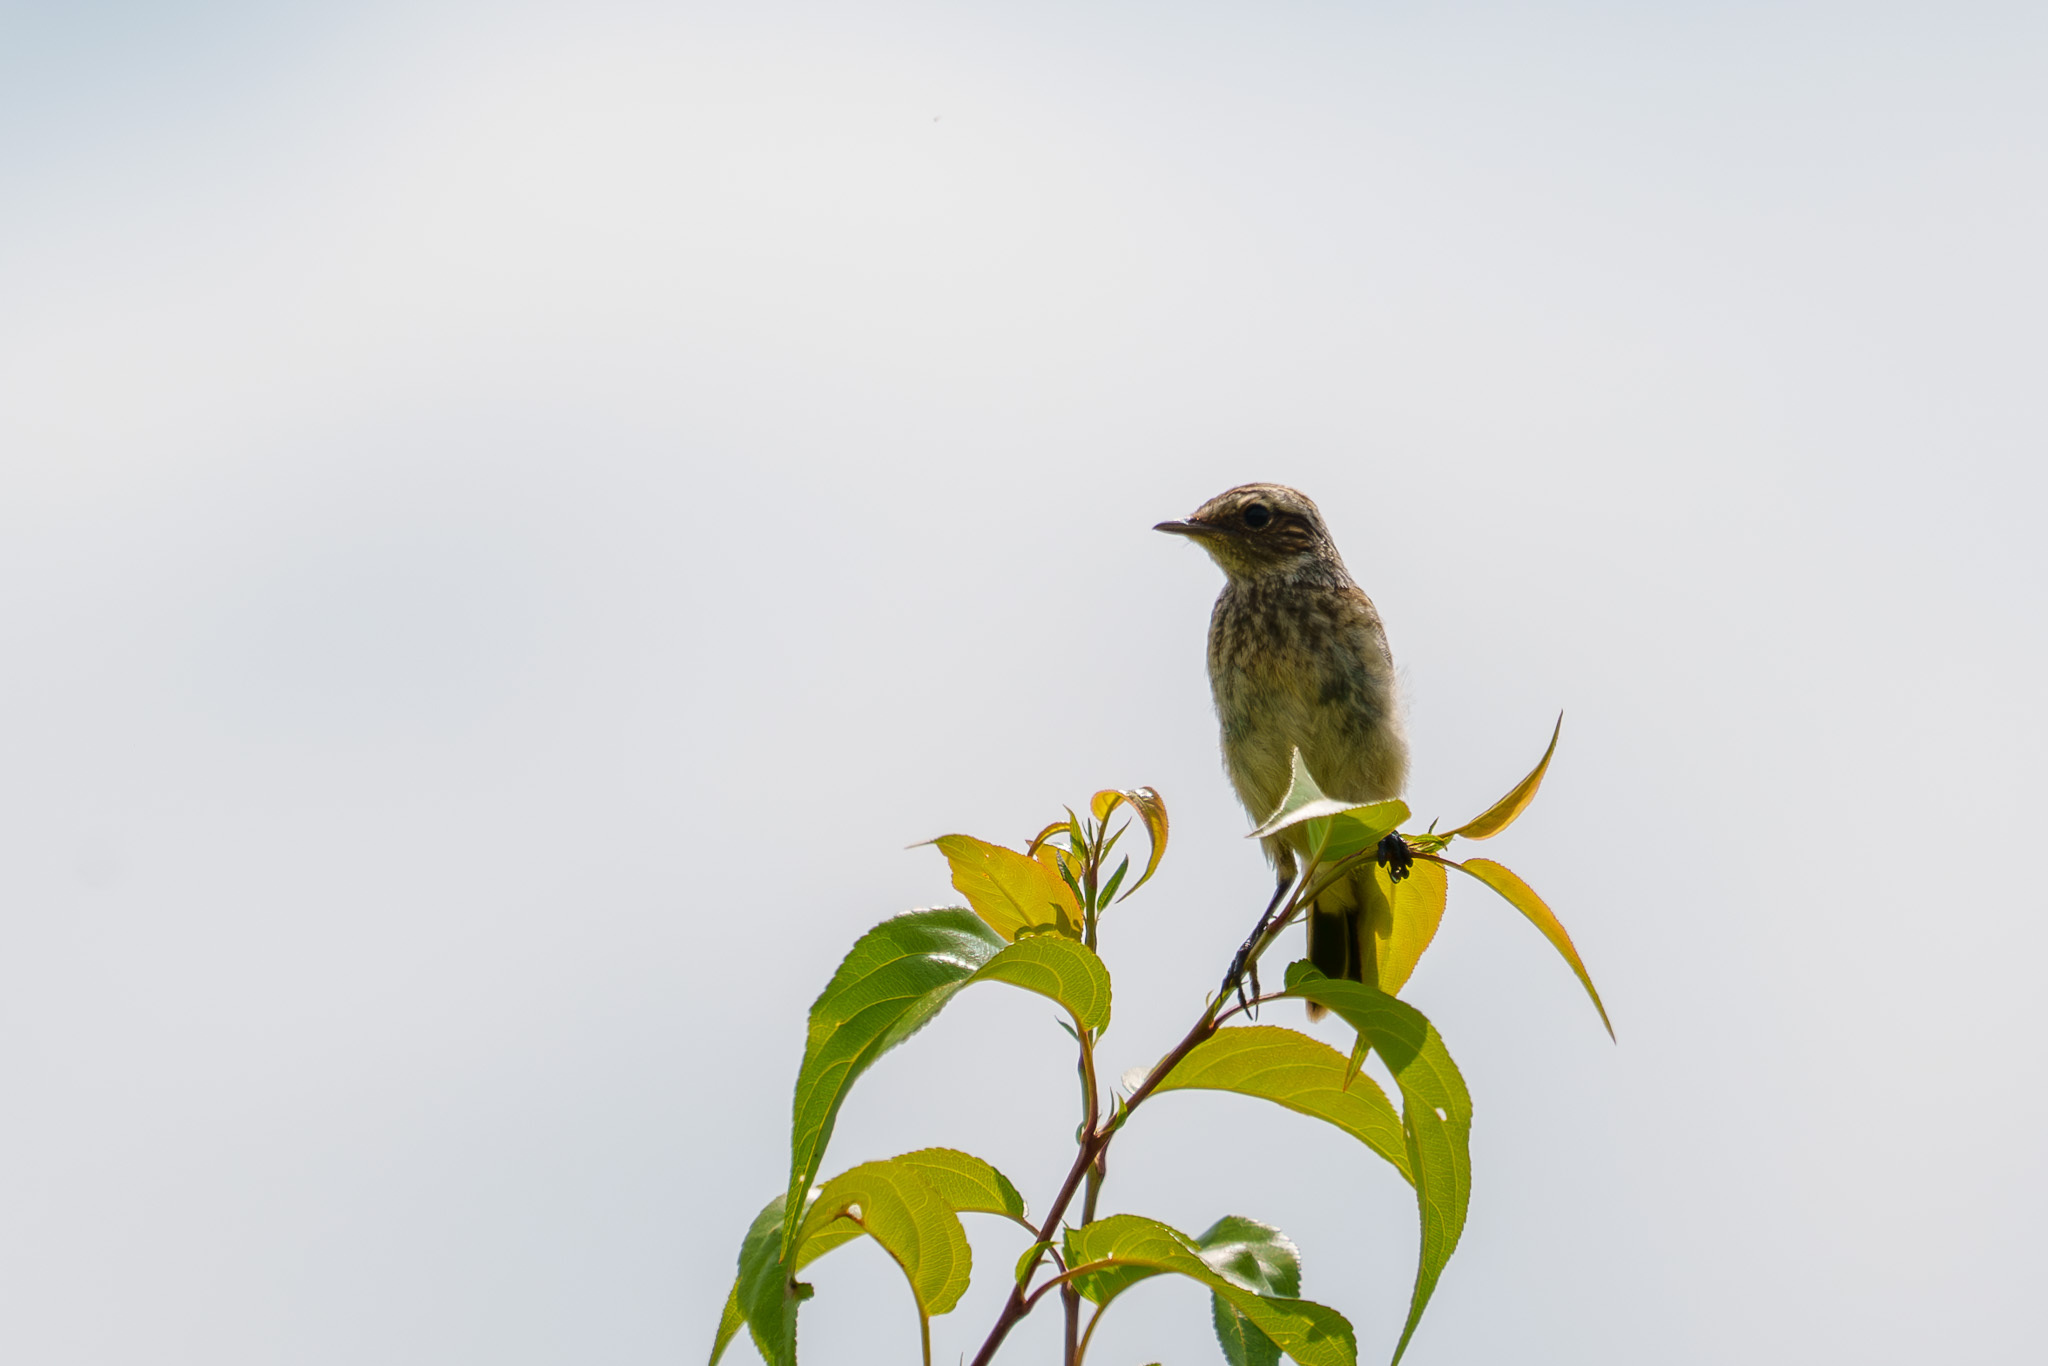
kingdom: Animalia
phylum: Chordata
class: Aves
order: Passeriformes
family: Muscicapidae
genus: Saxicola
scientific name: Saxicola rubetra
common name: Whinchat
